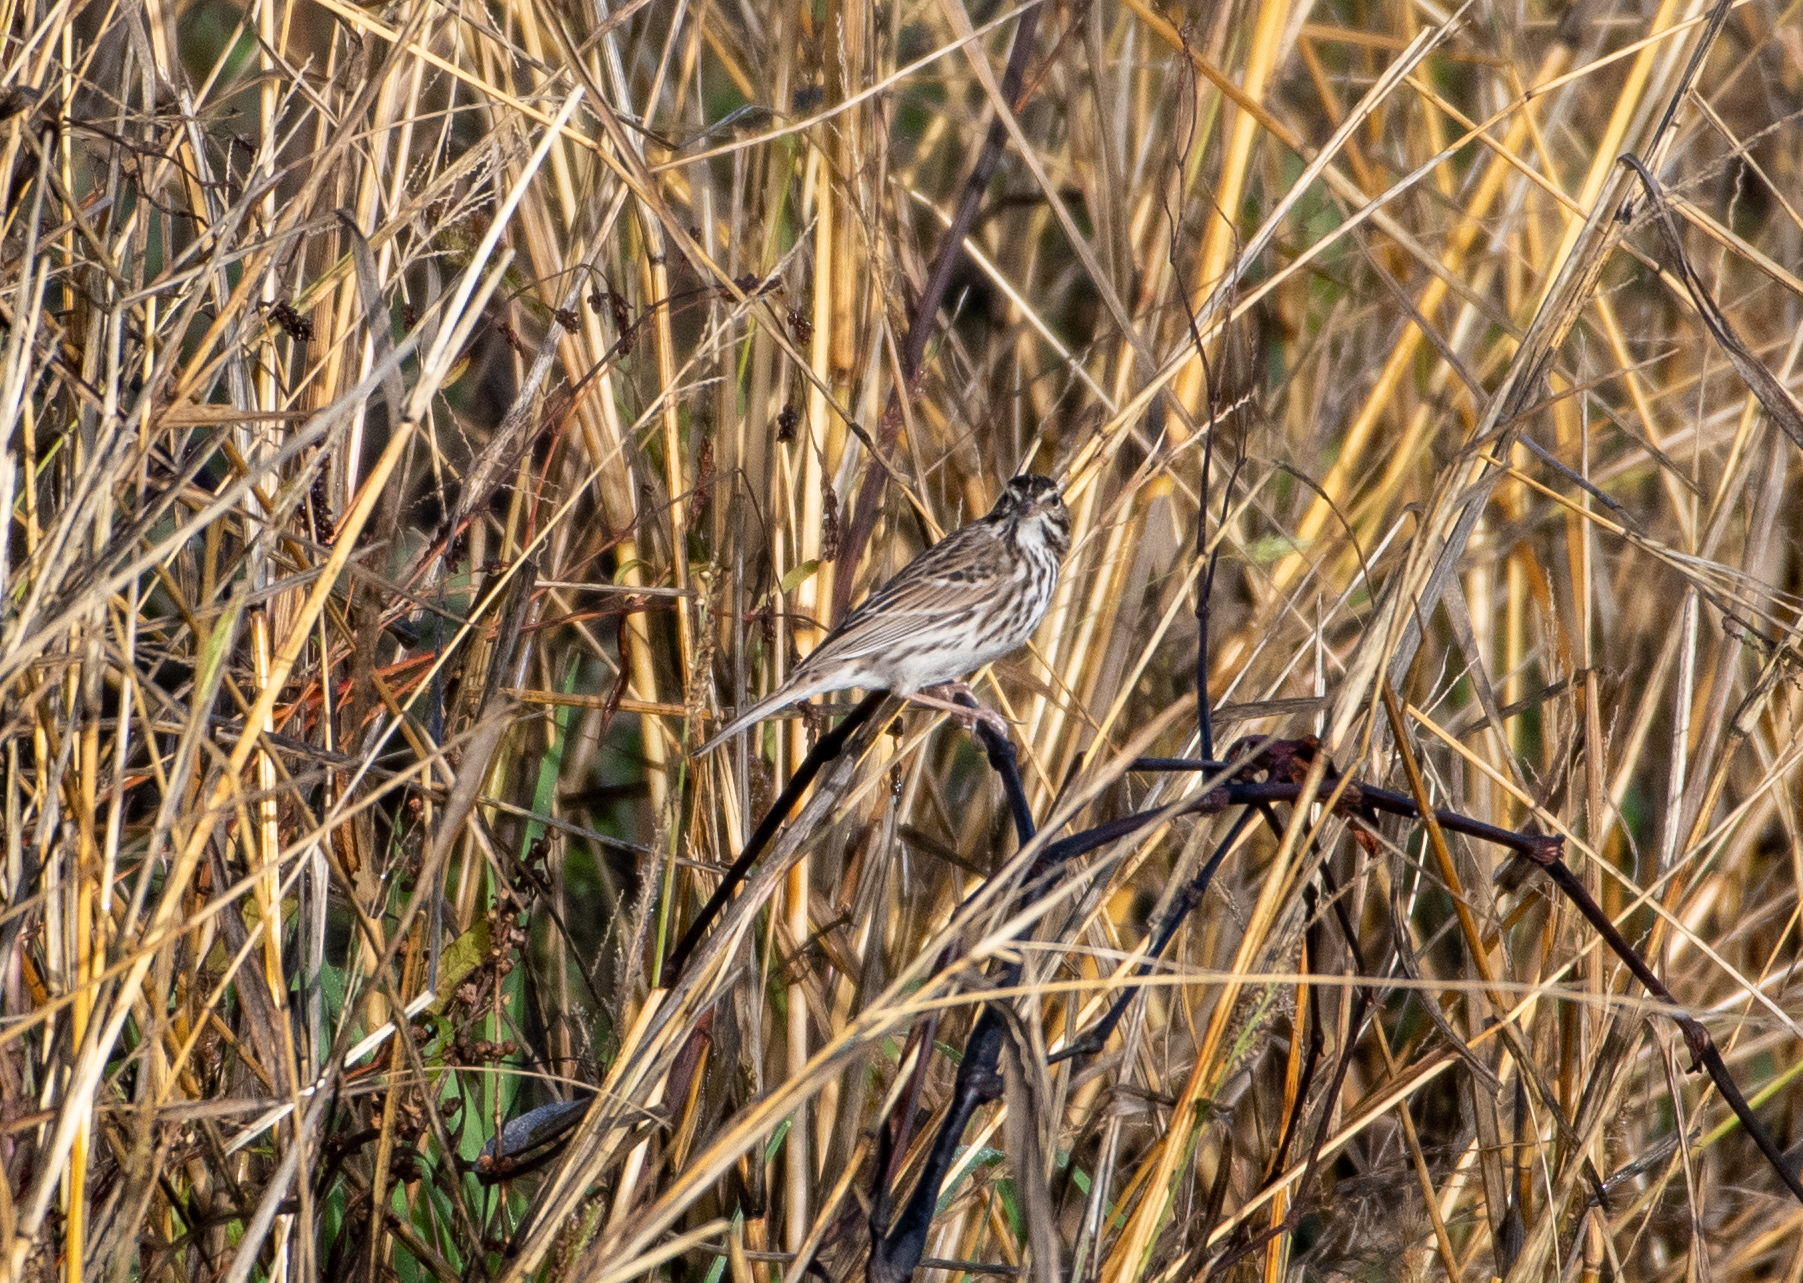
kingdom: Animalia
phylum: Chordata
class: Aves
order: Passeriformes
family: Passerellidae
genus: Passerculus
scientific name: Passerculus sandwichensis
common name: Savannah sparrow
